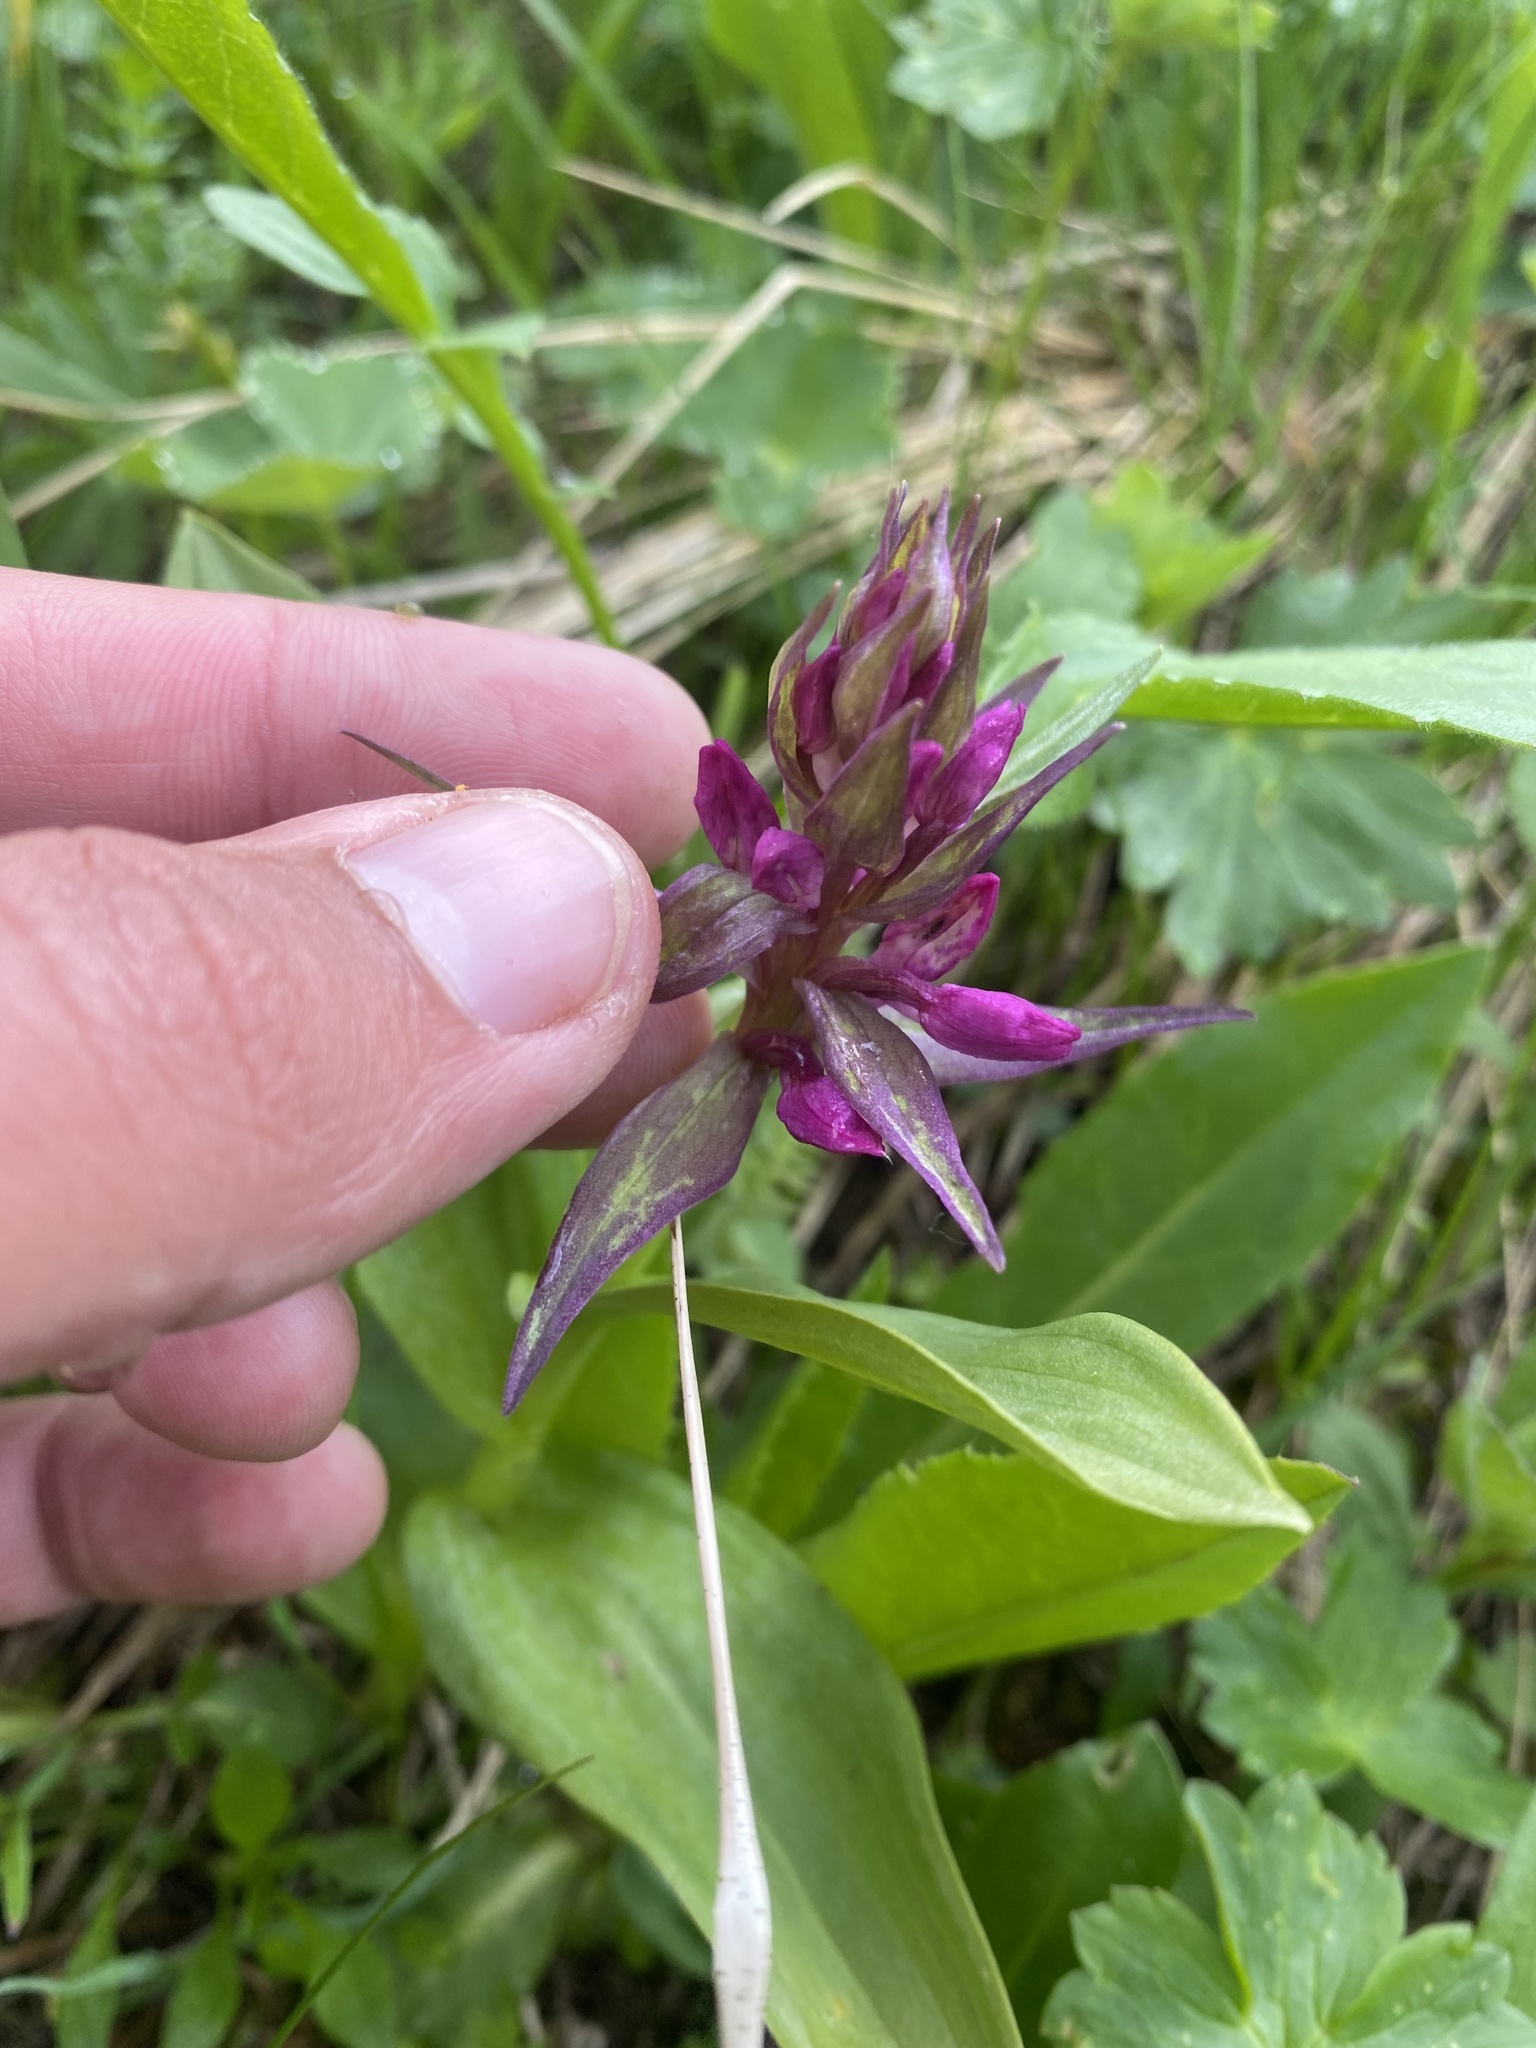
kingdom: Plantae
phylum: Tracheophyta
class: Liliopsida
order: Asparagales
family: Orchidaceae
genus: Dactylorhiza
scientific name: Dactylorhiza euxina
